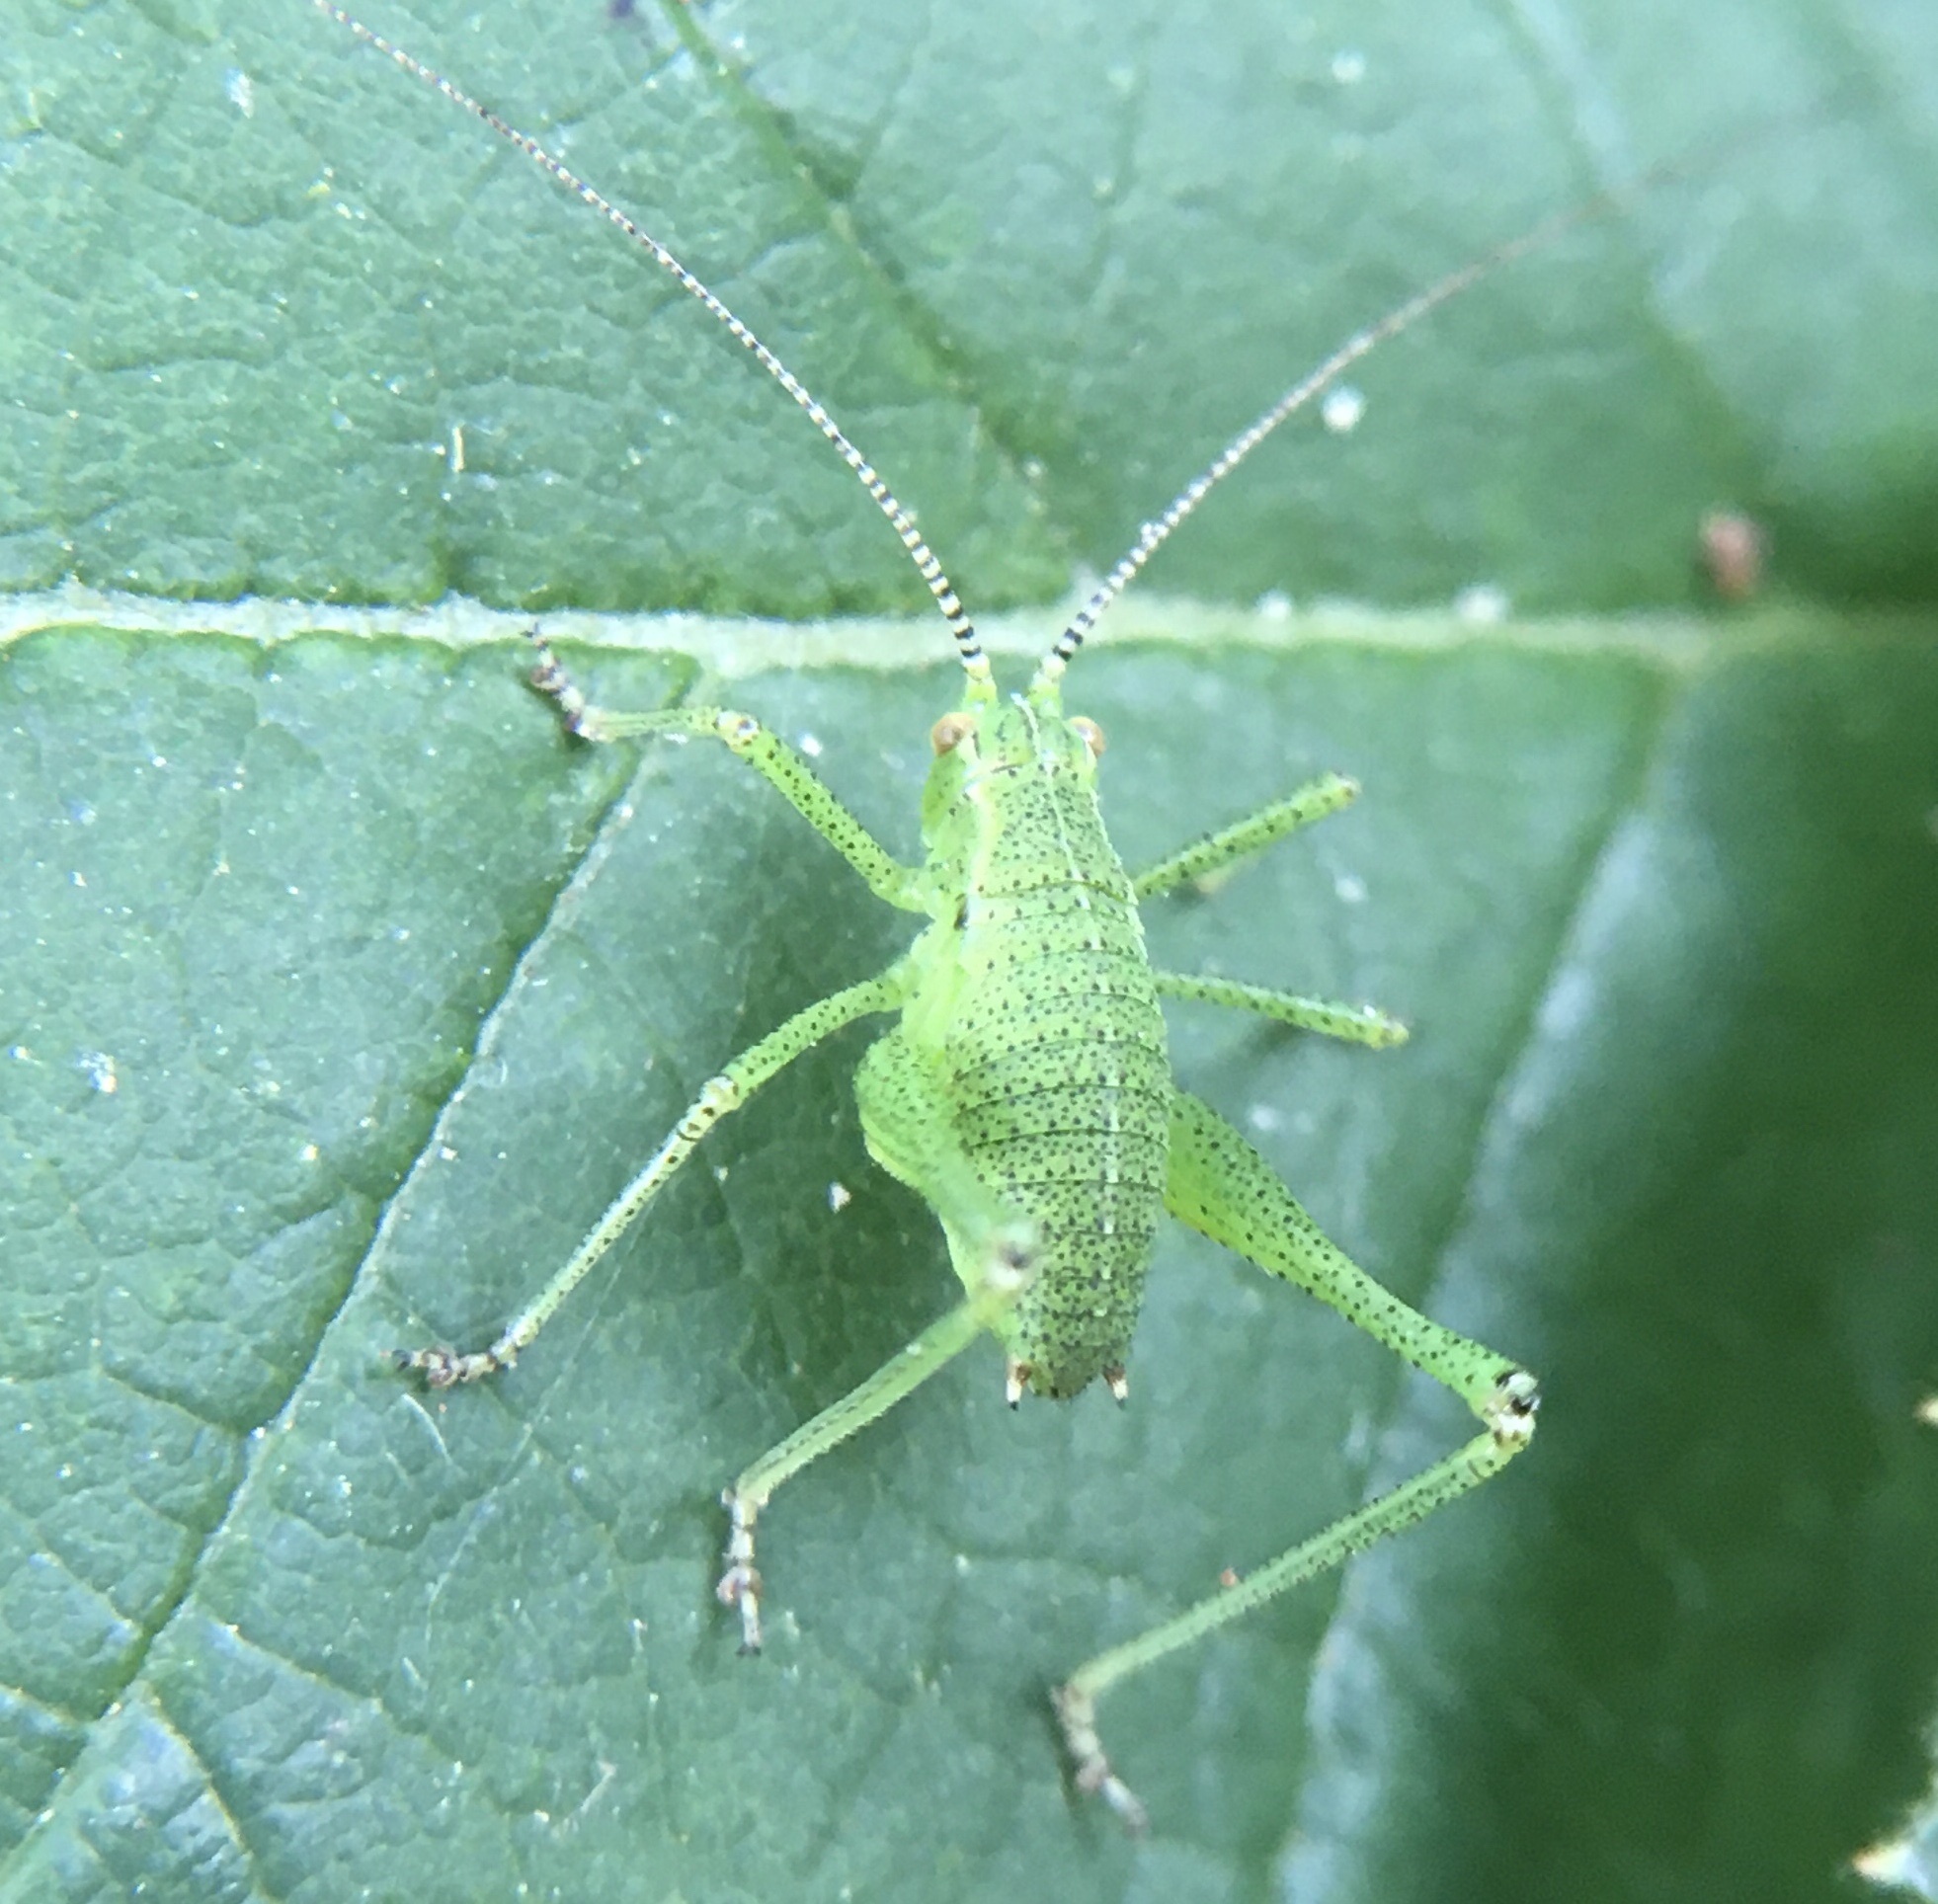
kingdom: Animalia
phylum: Arthropoda
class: Insecta
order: Orthoptera
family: Tettigoniidae
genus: Leptophyes
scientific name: Leptophyes punctatissima
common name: Speckled bush-cricket
